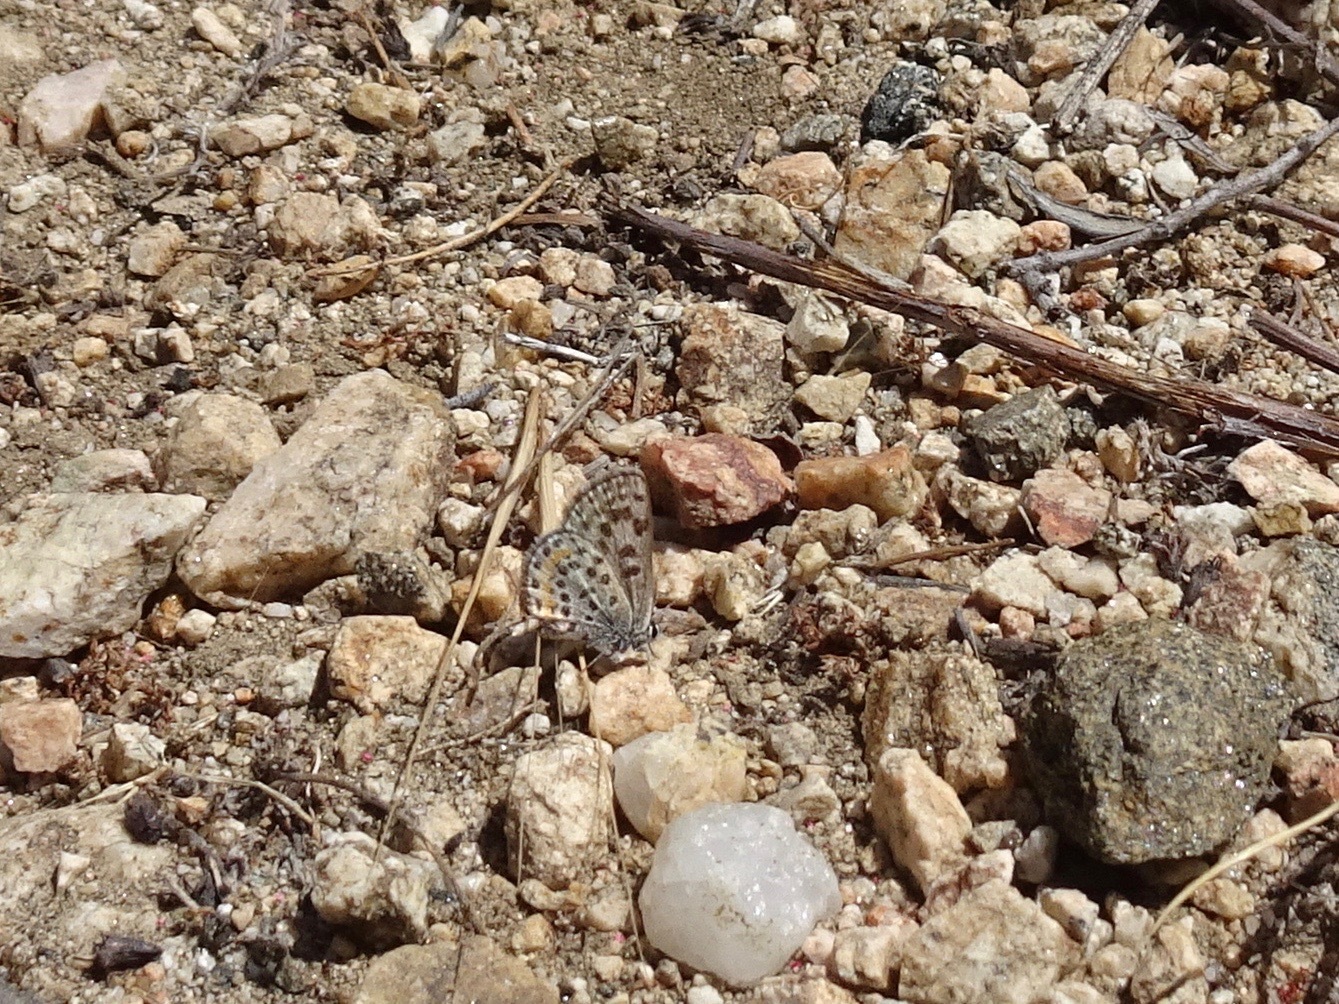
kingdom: Animalia
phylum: Arthropoda
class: Insecta
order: Lepidoptera
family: Lycaenidae
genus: Philotes
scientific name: Philotes bernardino
